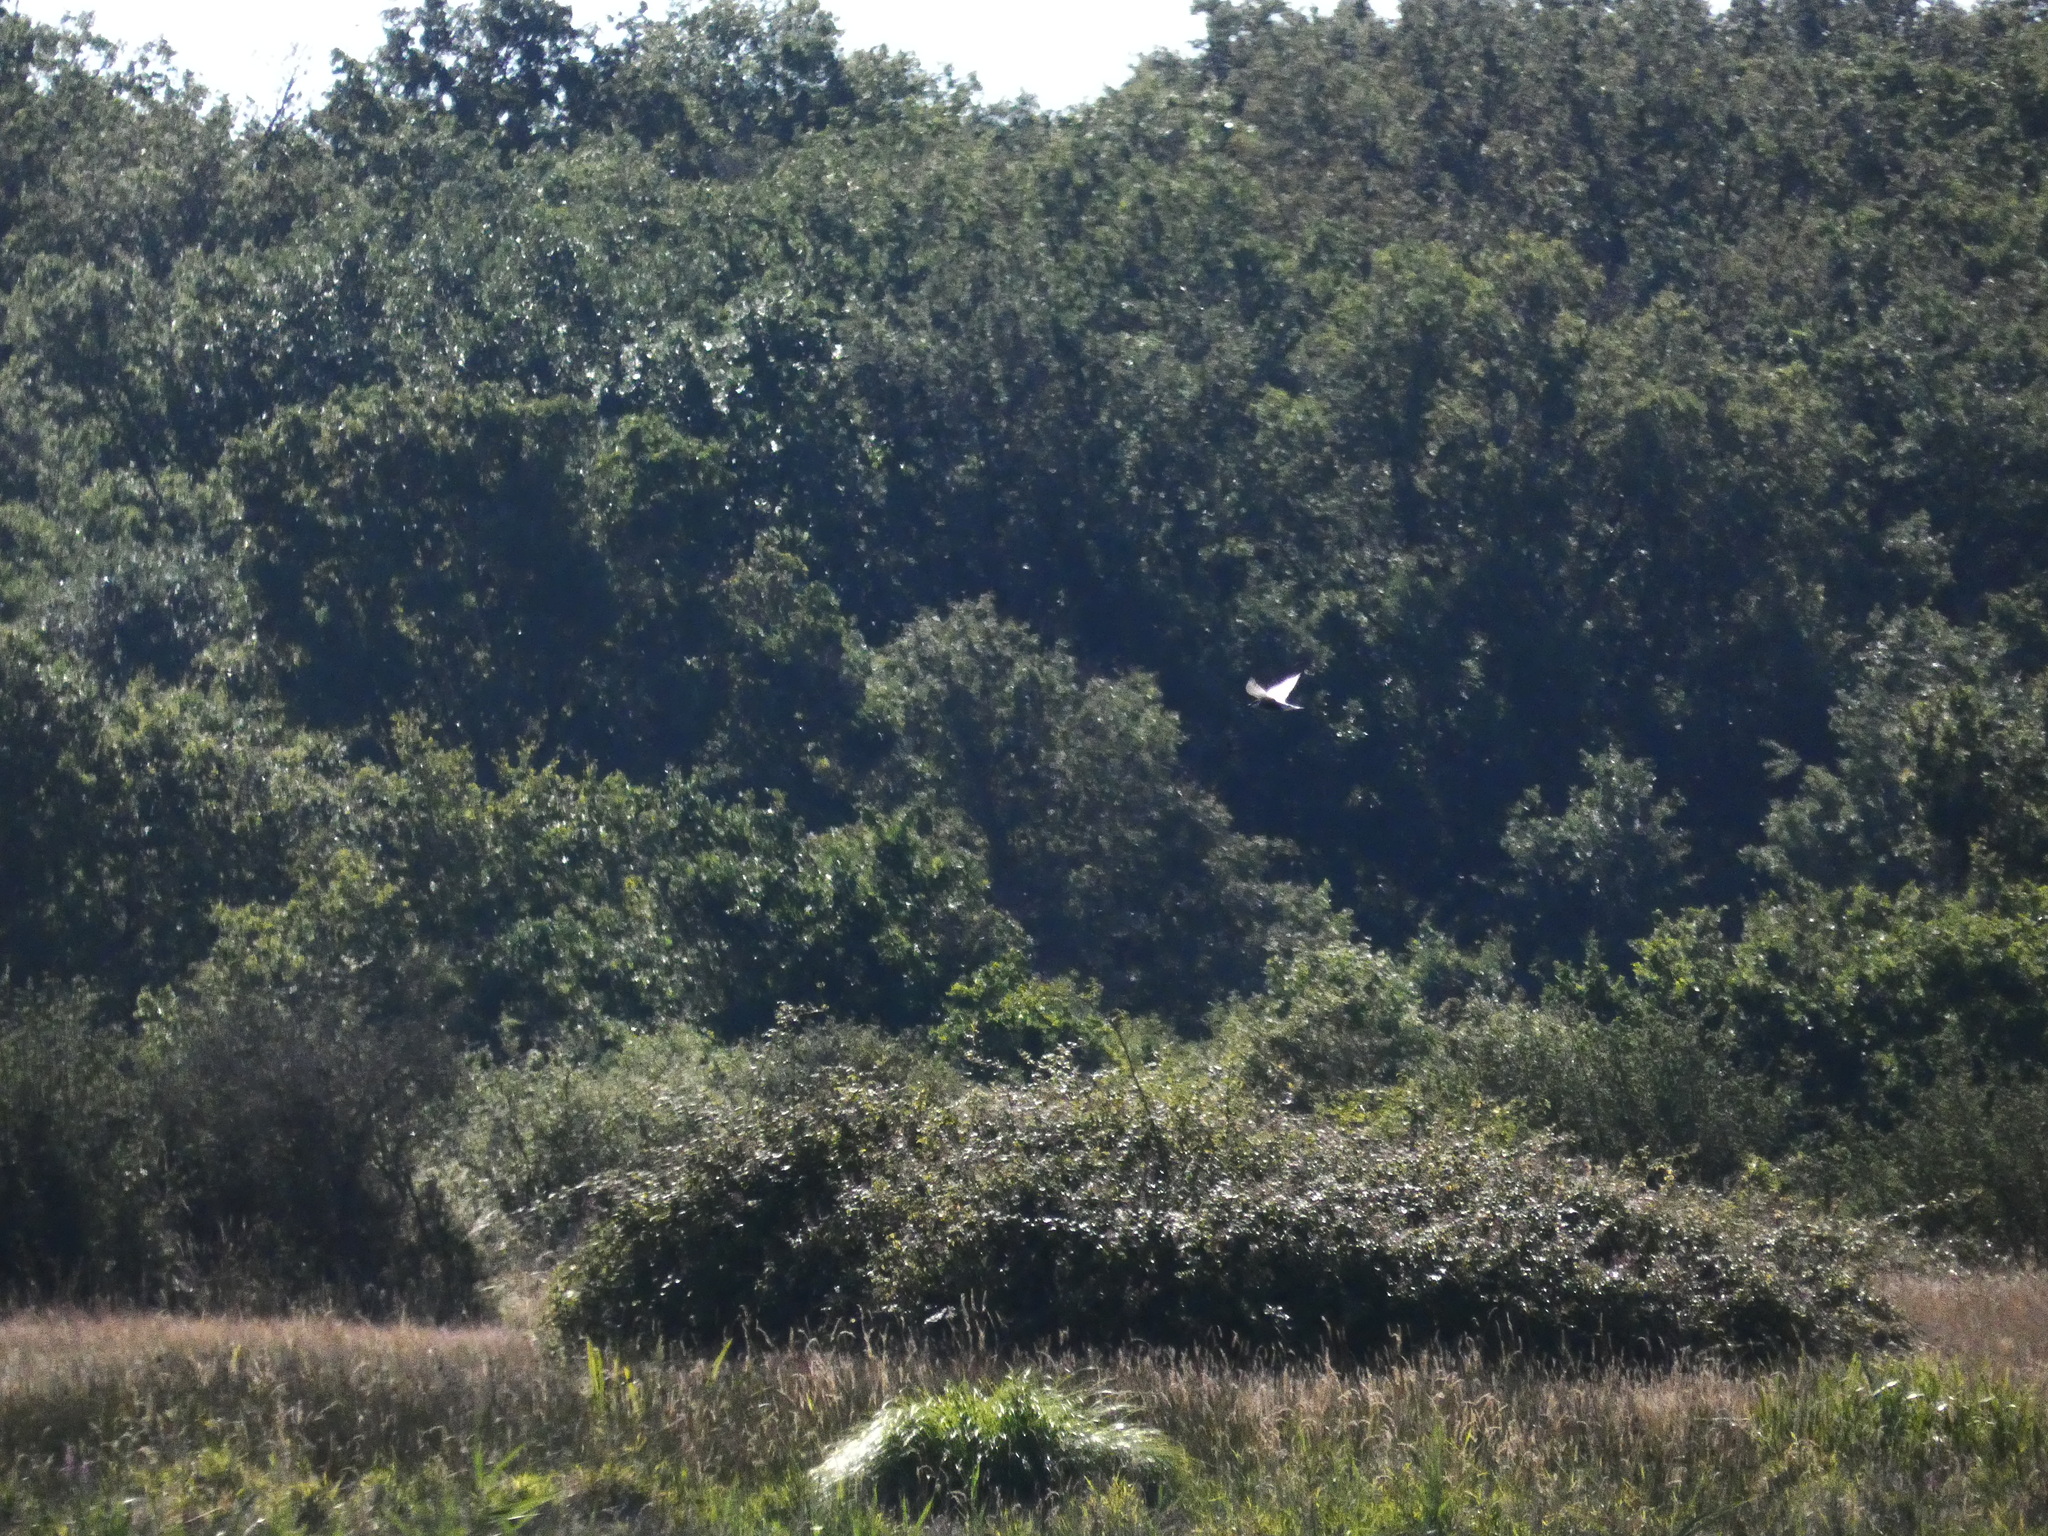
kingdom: Animalia
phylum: Chordata
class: Aves
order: Charadriiformes
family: Laridae
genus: Chlidonias
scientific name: Chlidonias hybrida
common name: Whiskered tern
